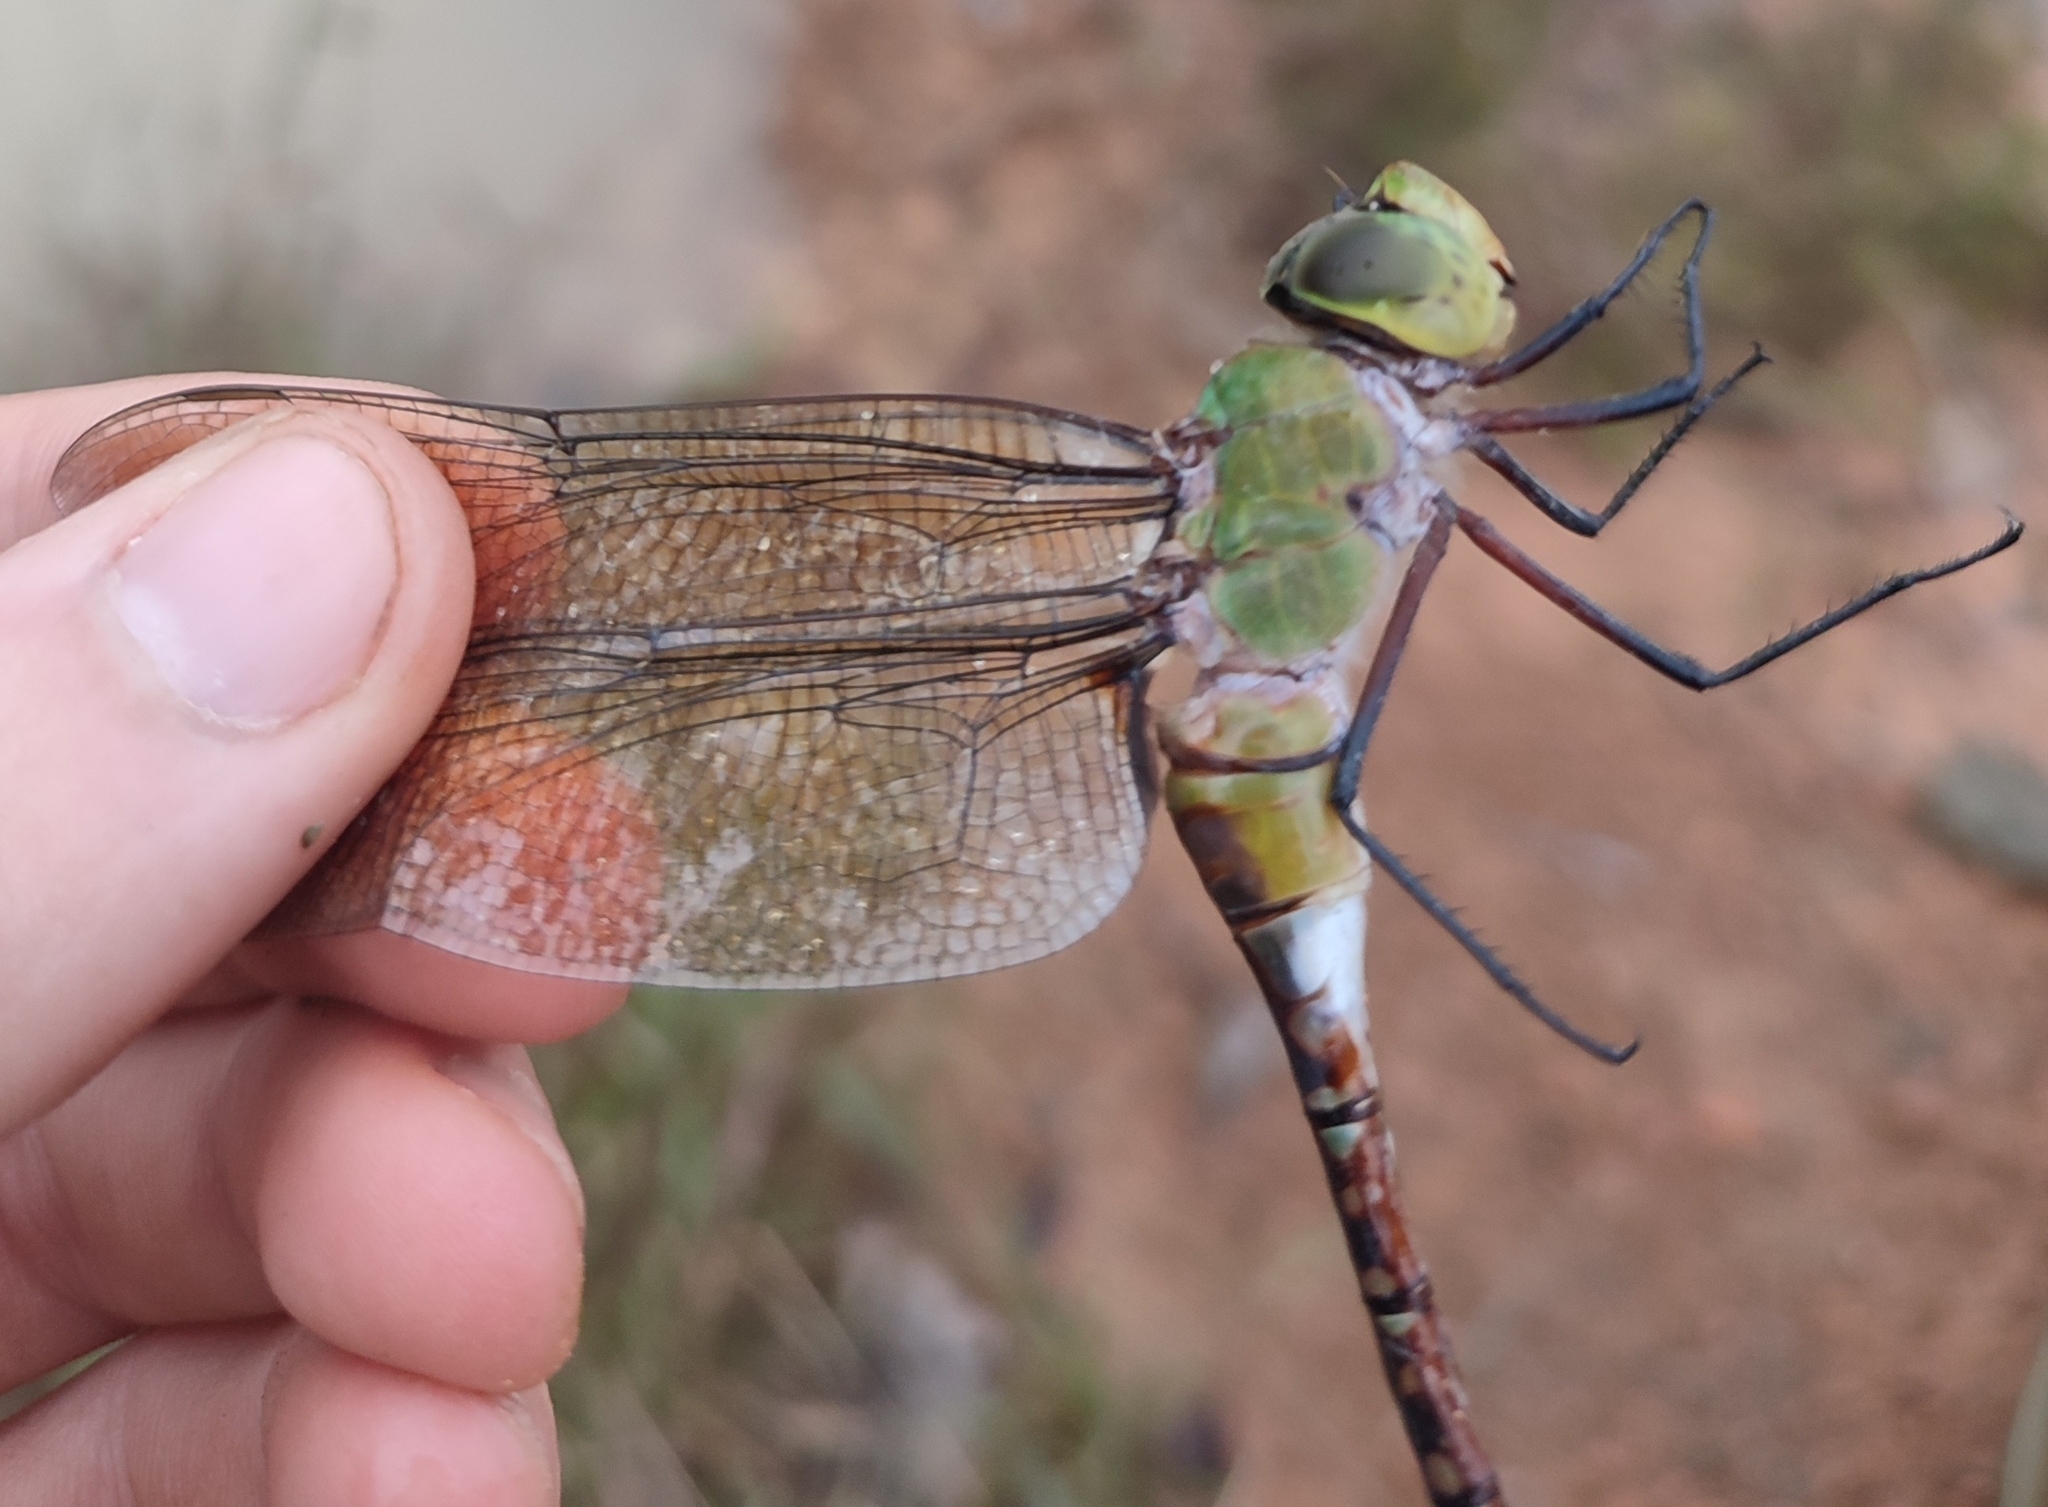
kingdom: Animalia
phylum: Arthropoda
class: Insecta
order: Odonata
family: Aeshnidae
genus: Anax
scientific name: Anax guttatus
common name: Emperor
